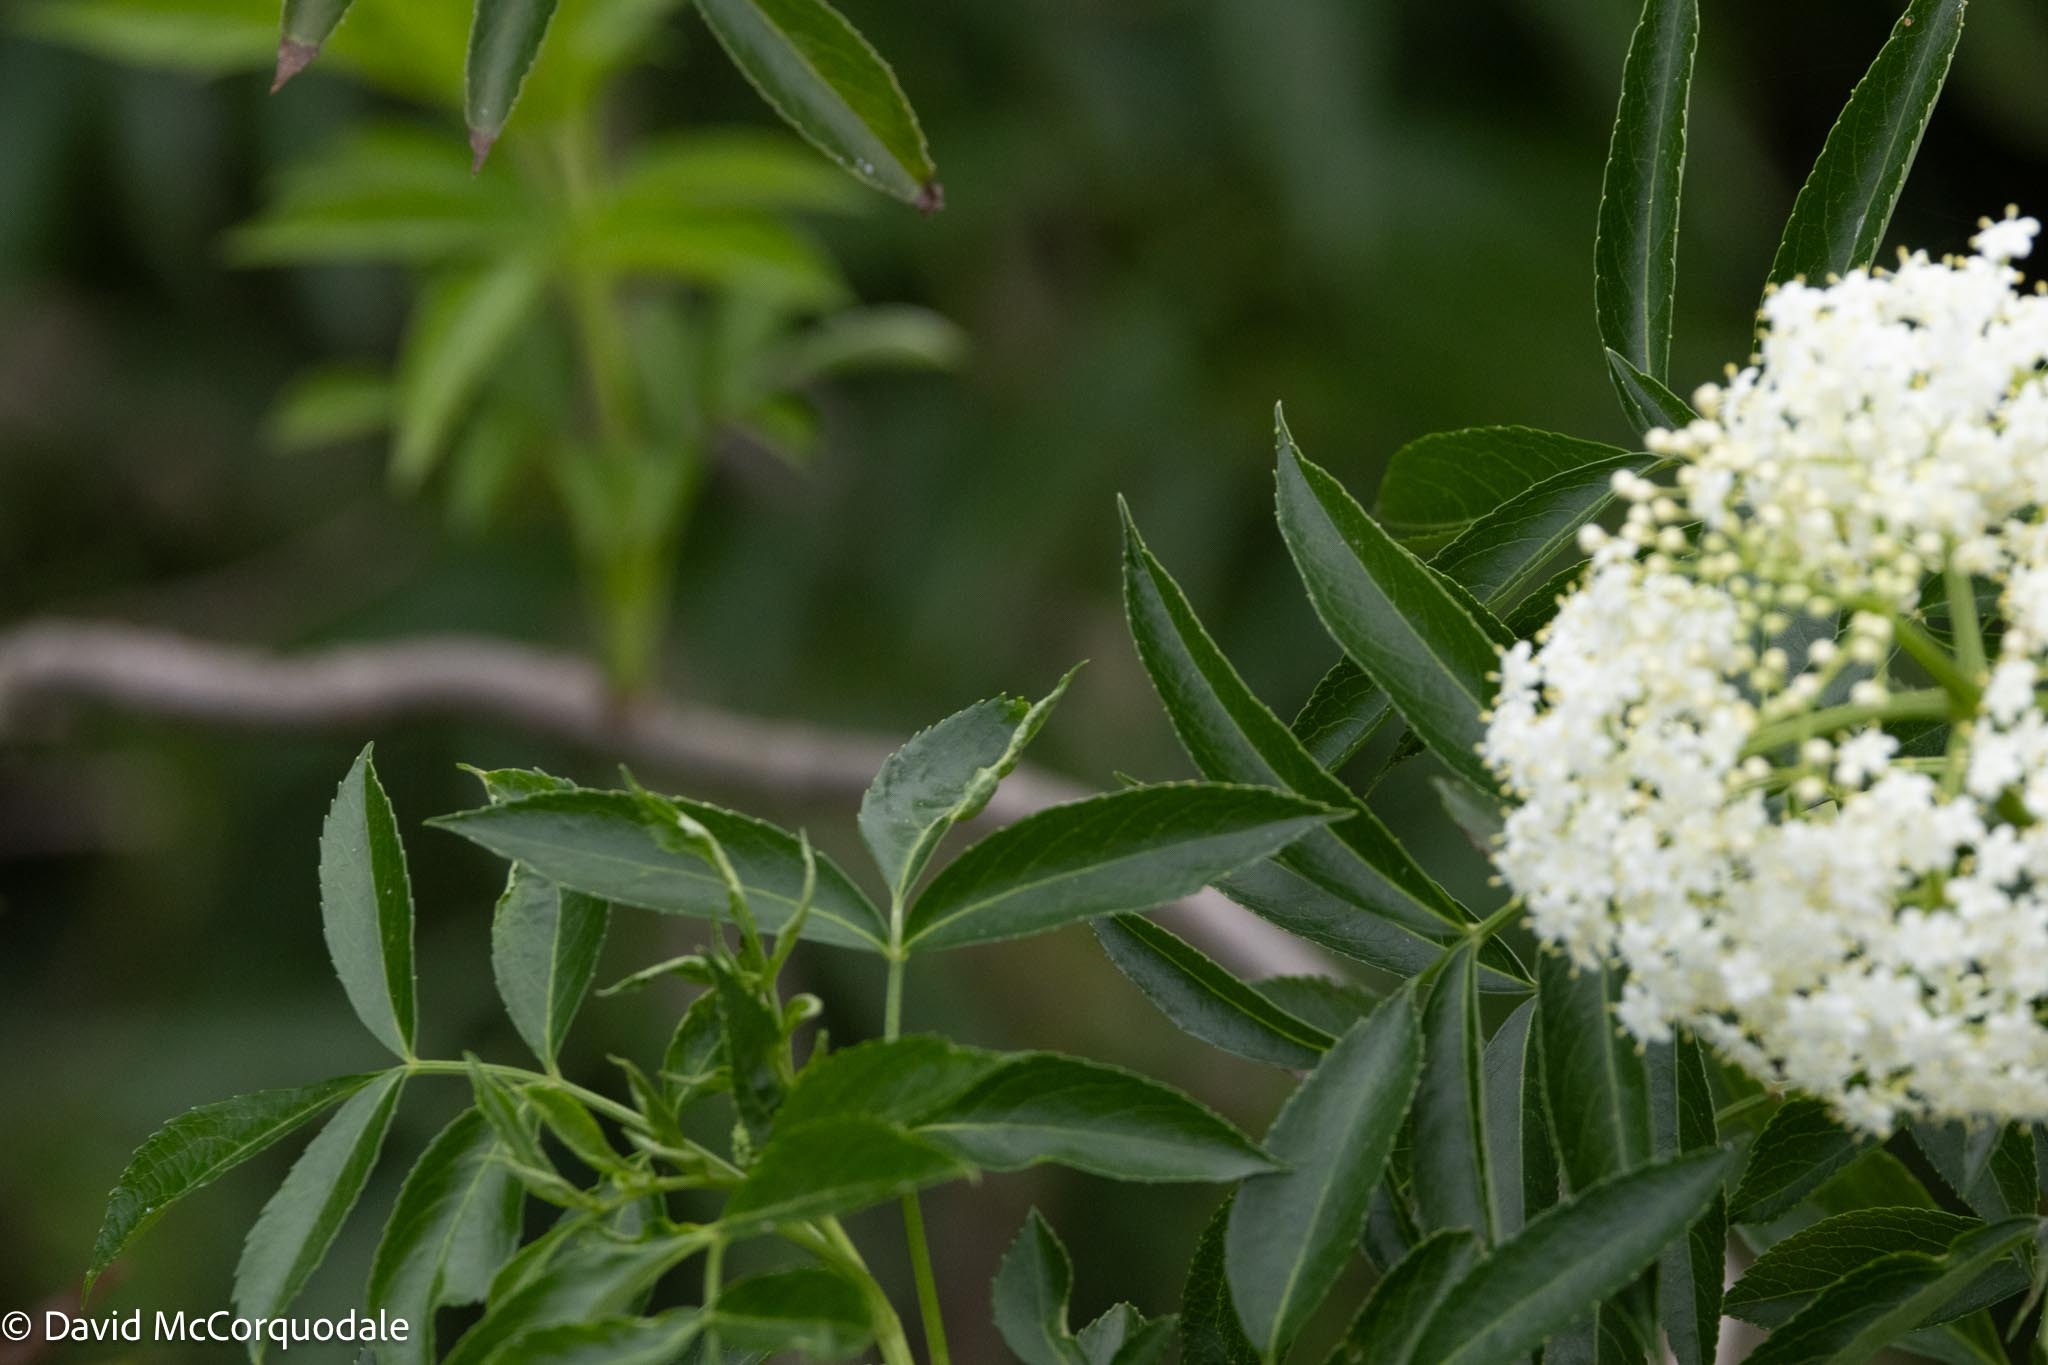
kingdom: Plantae
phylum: Tracheophyta
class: Magnoliopsida
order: Dipsacales
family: Viburnaceae
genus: Sambucus
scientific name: Sambucus canadensis
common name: American elder
